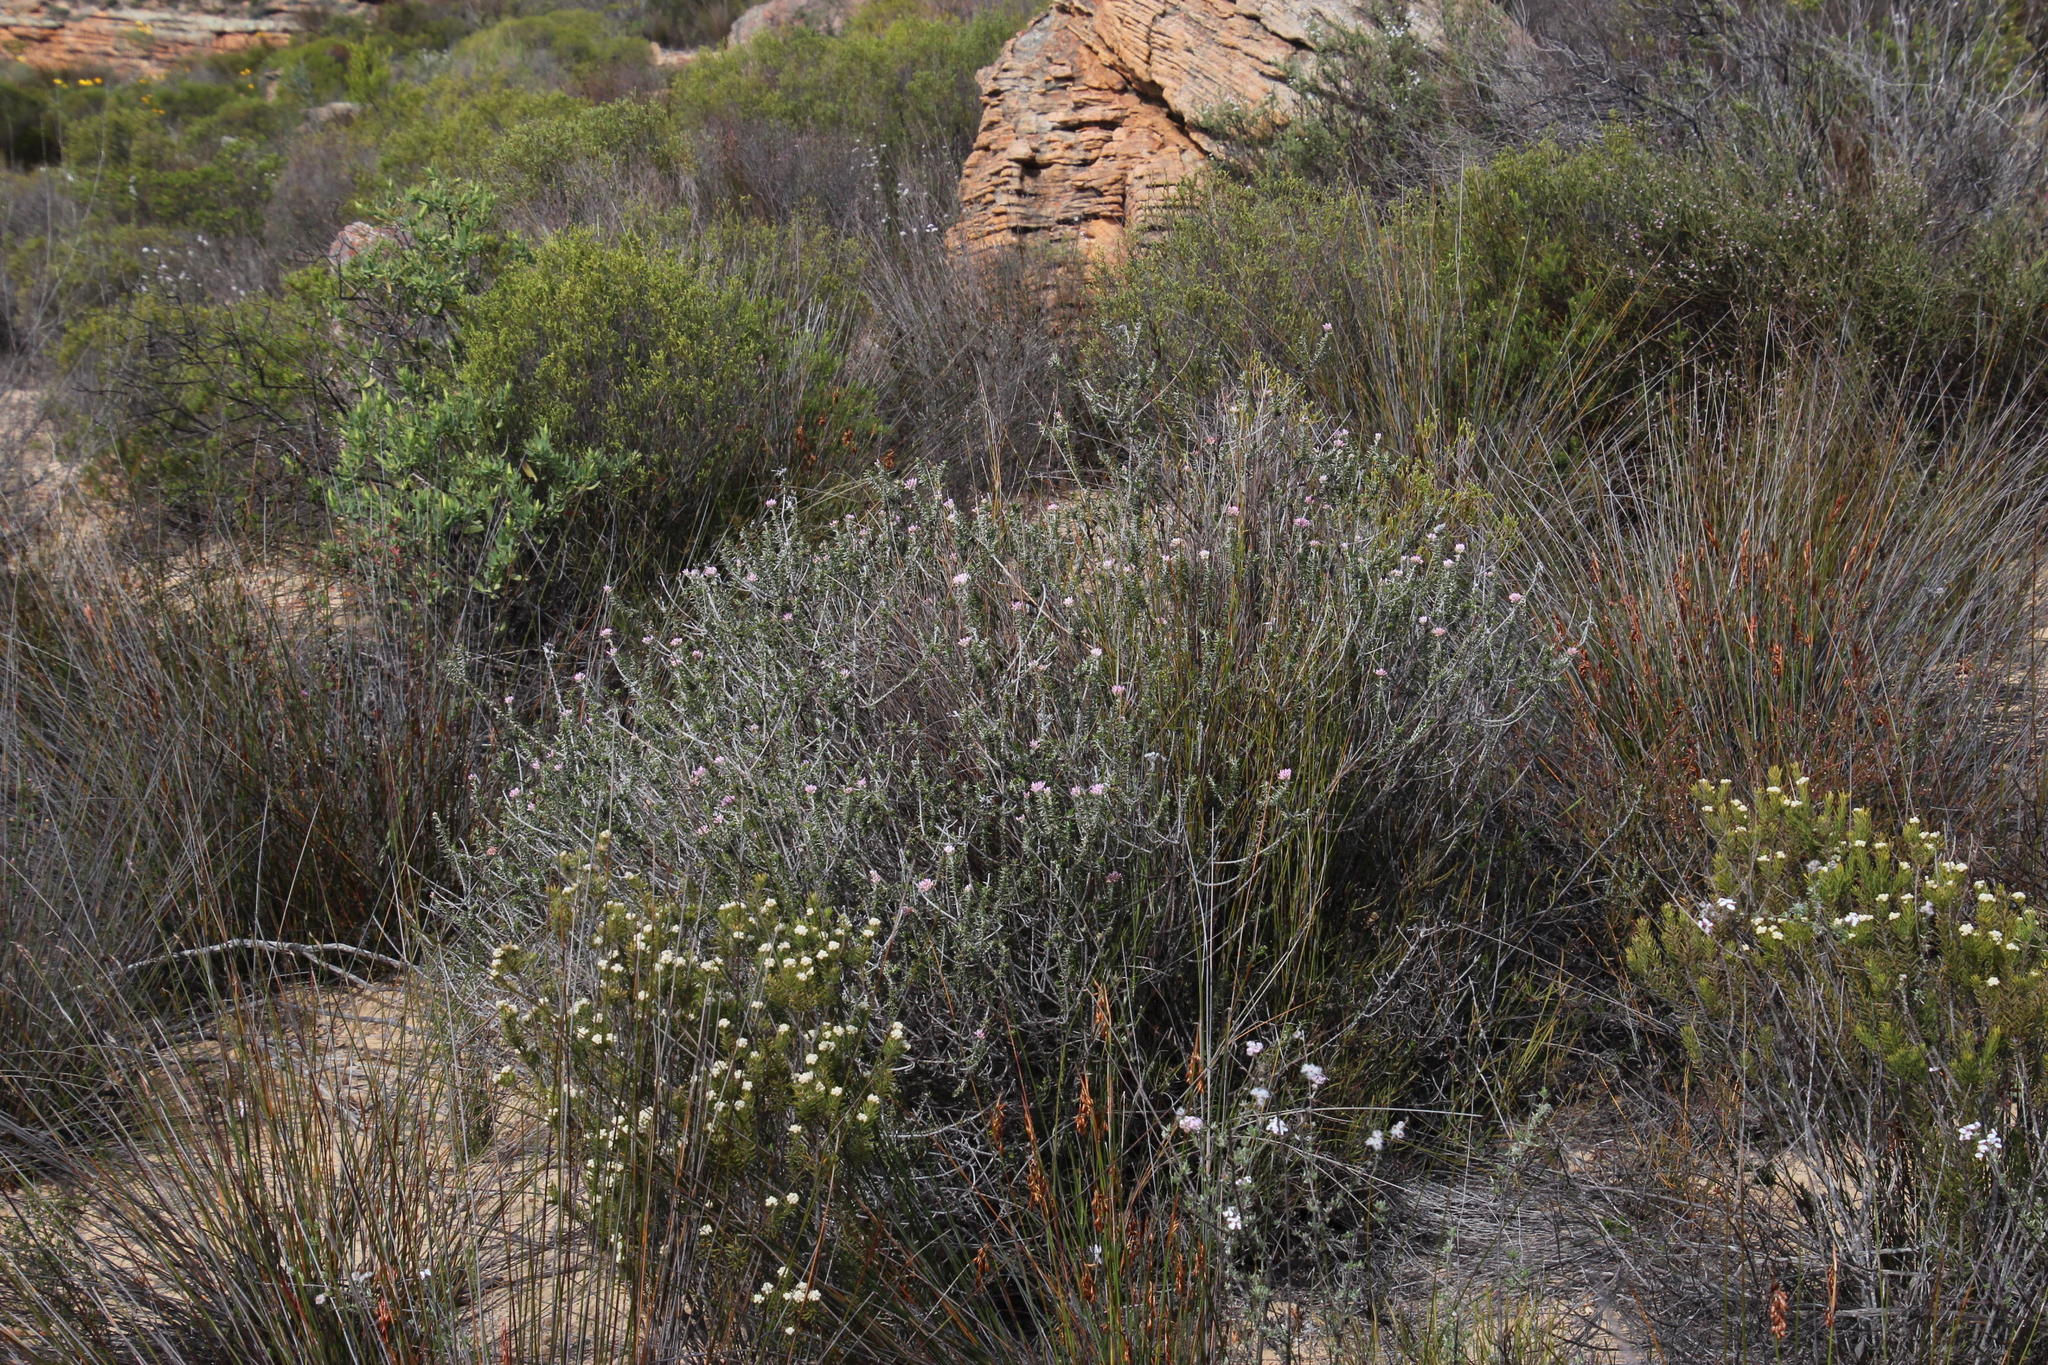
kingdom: Plantae
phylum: Tracheophyta
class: Magnoliopsida
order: Asterales
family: Asteraceae
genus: Metalasia
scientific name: Metalasia fastigiata
